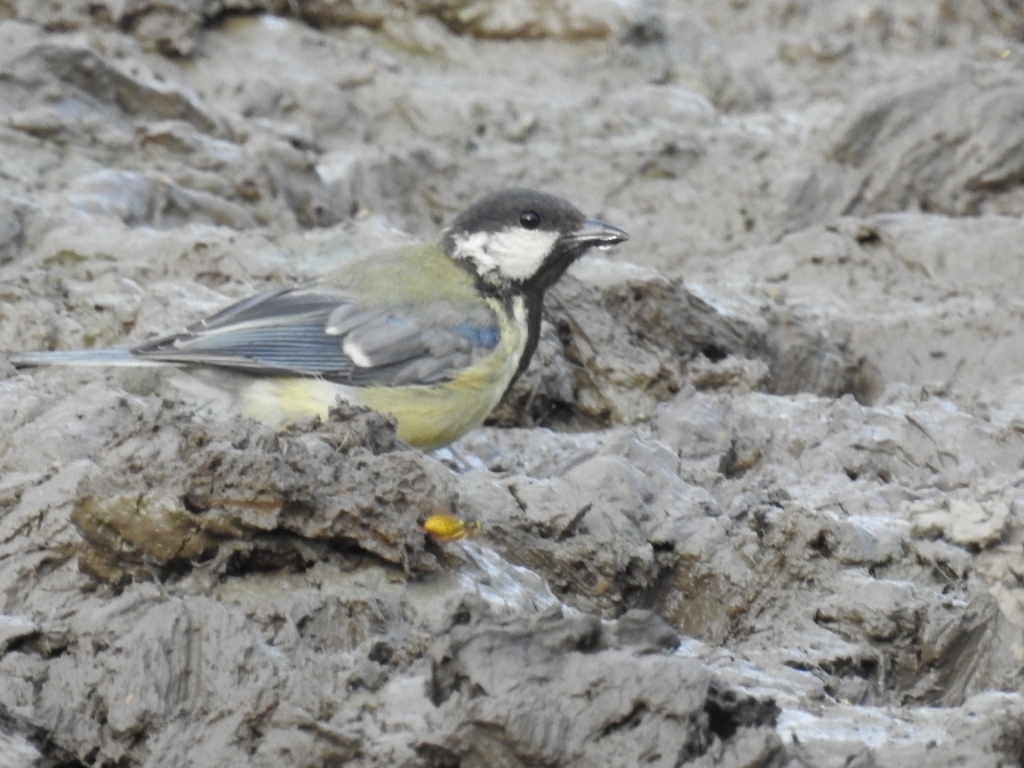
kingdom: Animalia
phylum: Chordata
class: Aves
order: Passeriformes
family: Paridae
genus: Parus
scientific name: Parus major
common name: Great tit
